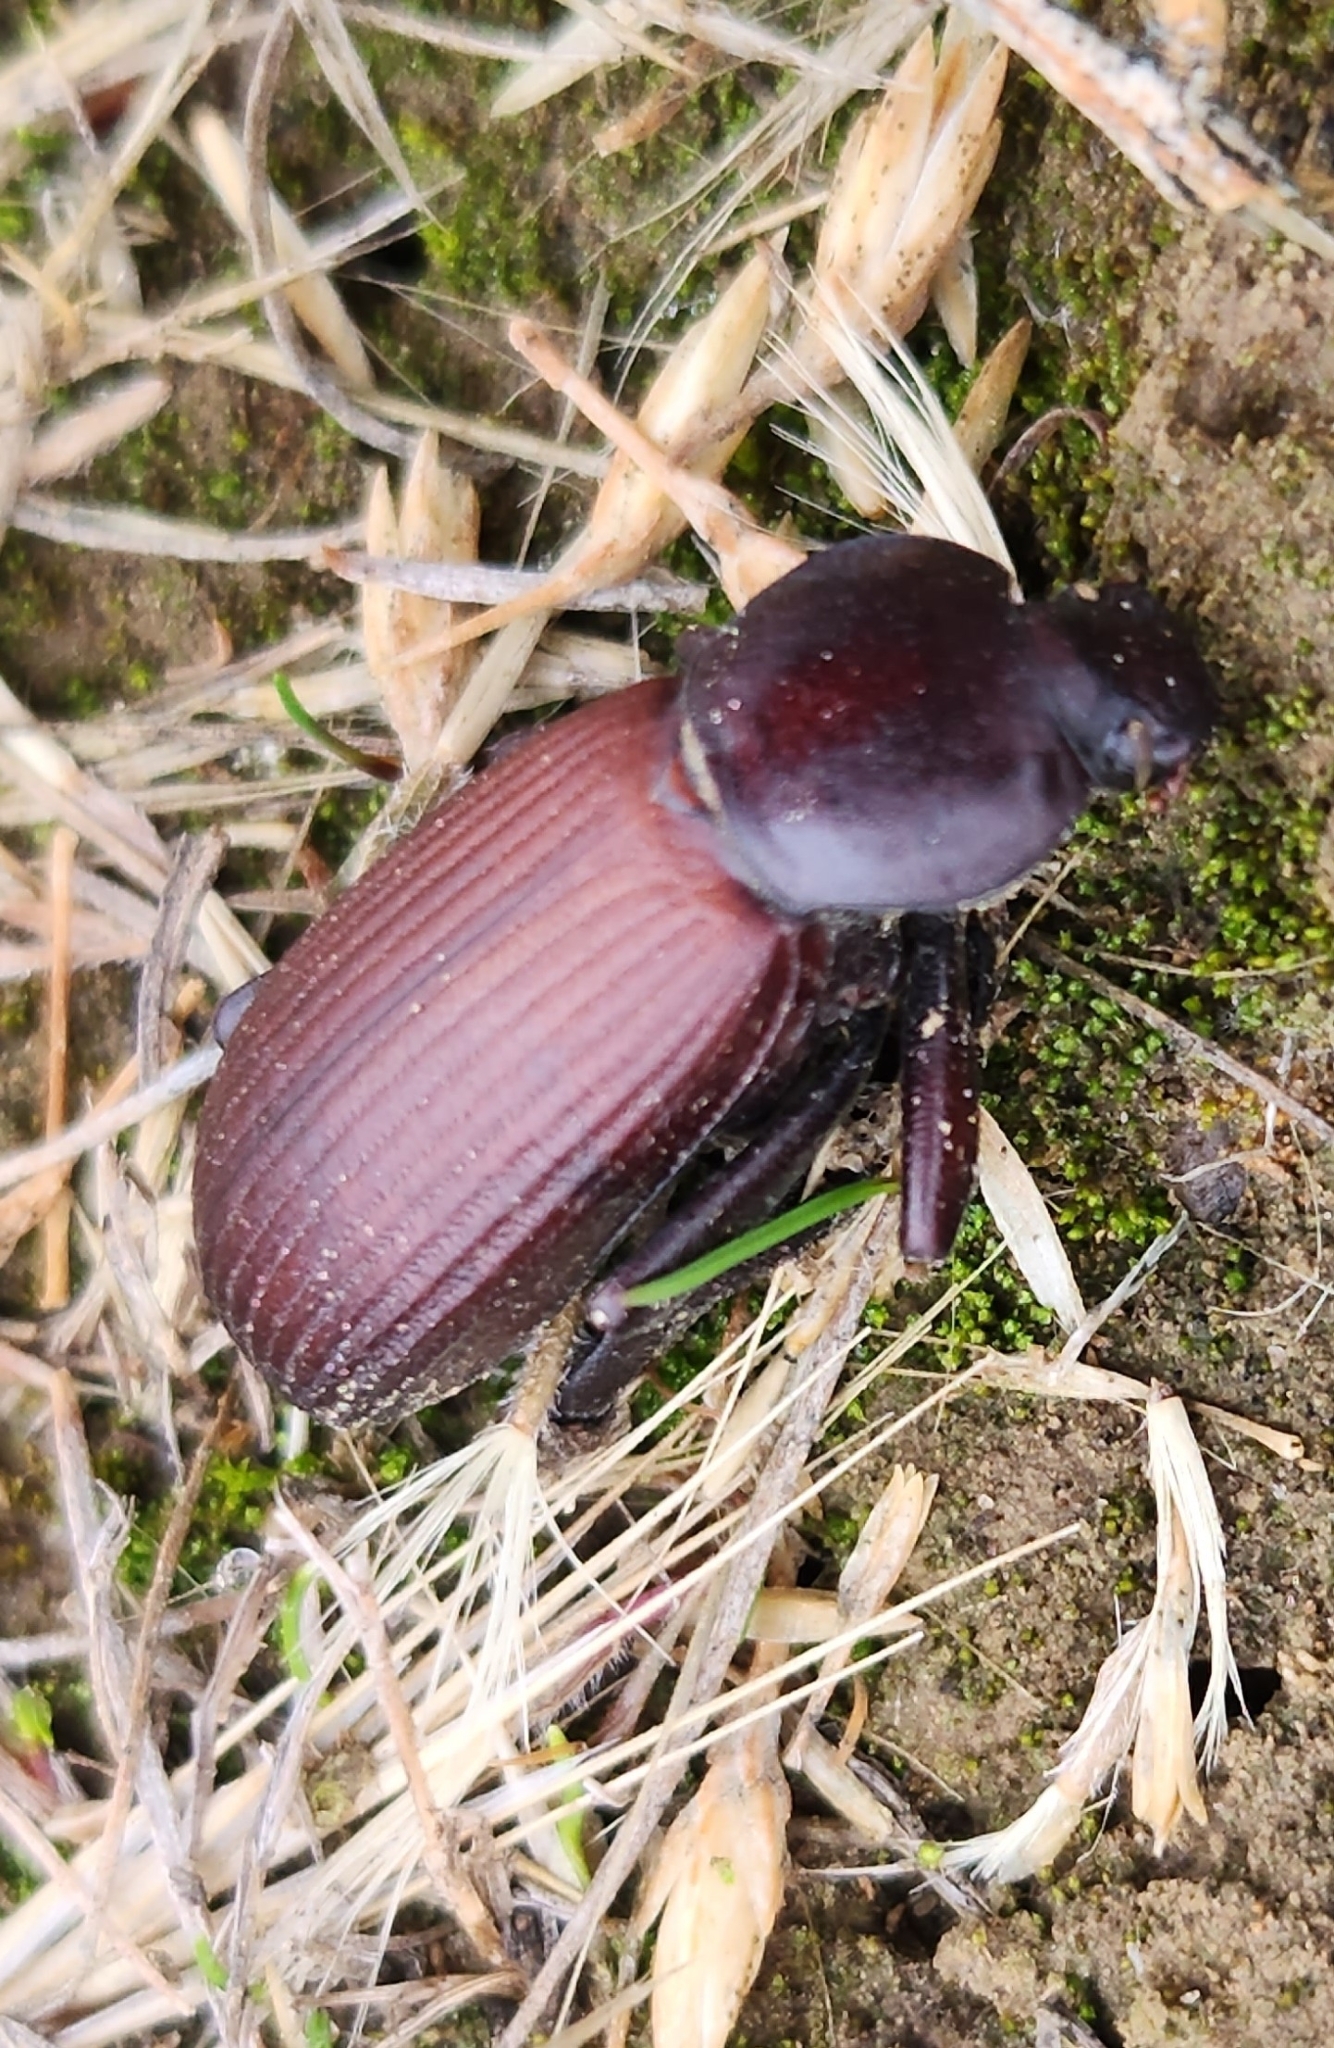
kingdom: Animalia
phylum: Arthropoda
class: Insecta
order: Coleoptera
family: Tenebrionidae
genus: Eleodes
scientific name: Eleodes obscura
